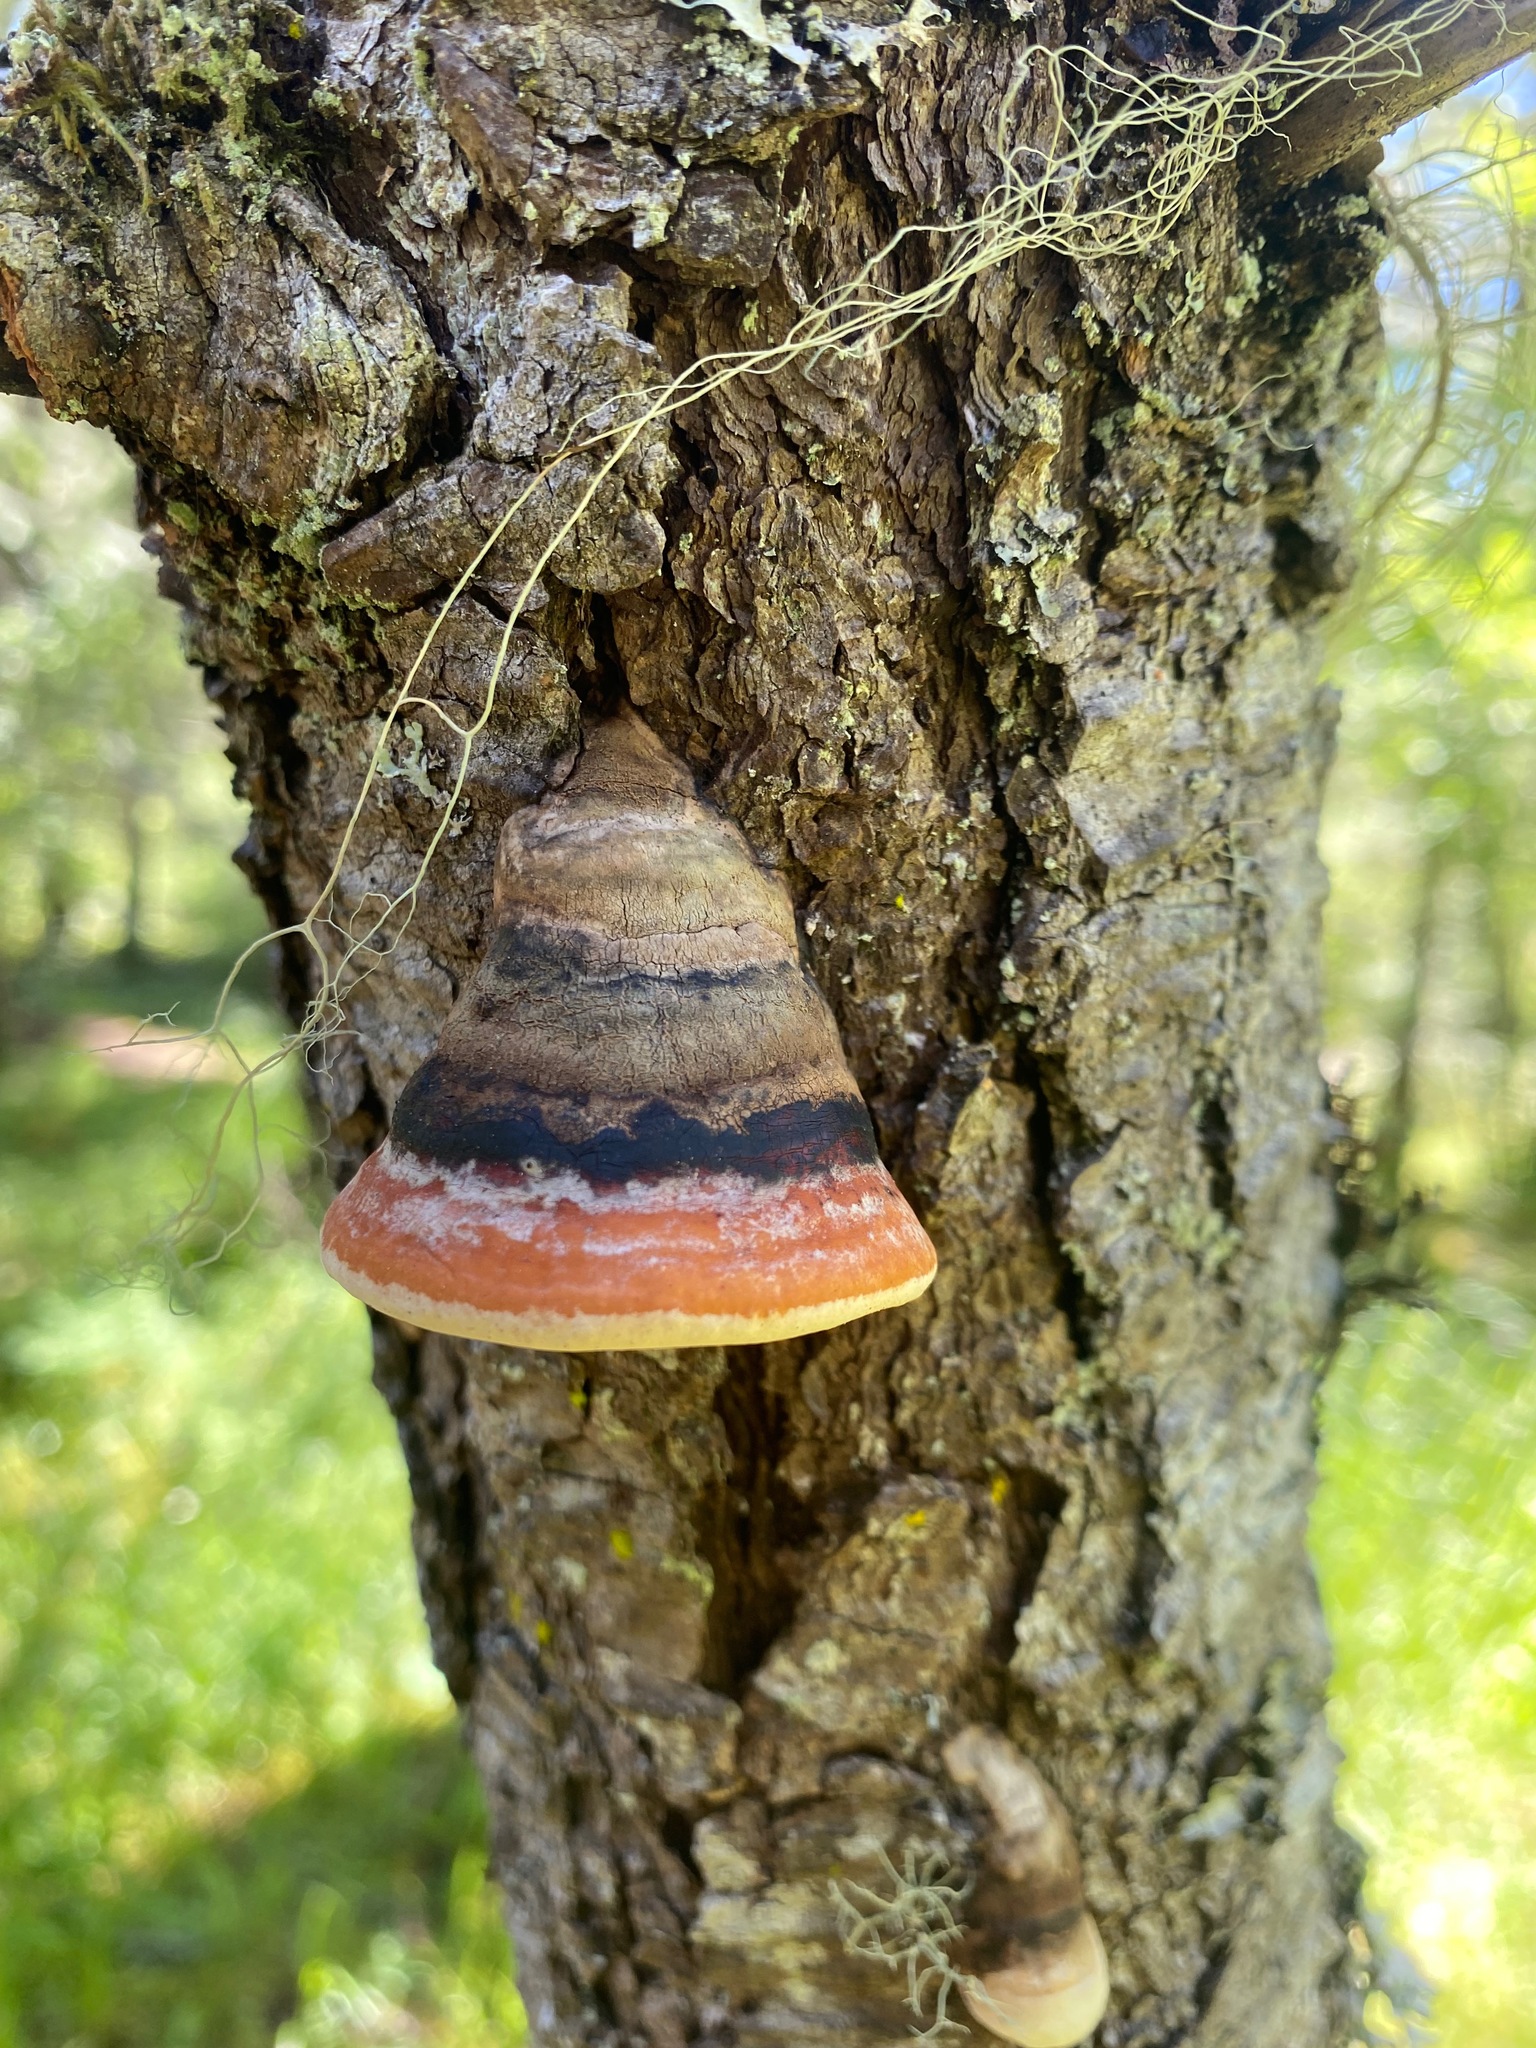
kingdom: Fungi
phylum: Basidiomycota
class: Agaricomycetes
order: Polyporales
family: Fomitopsidaceae
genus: Fomitopsis
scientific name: Fomitopsis mounceae
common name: Northern red belt
